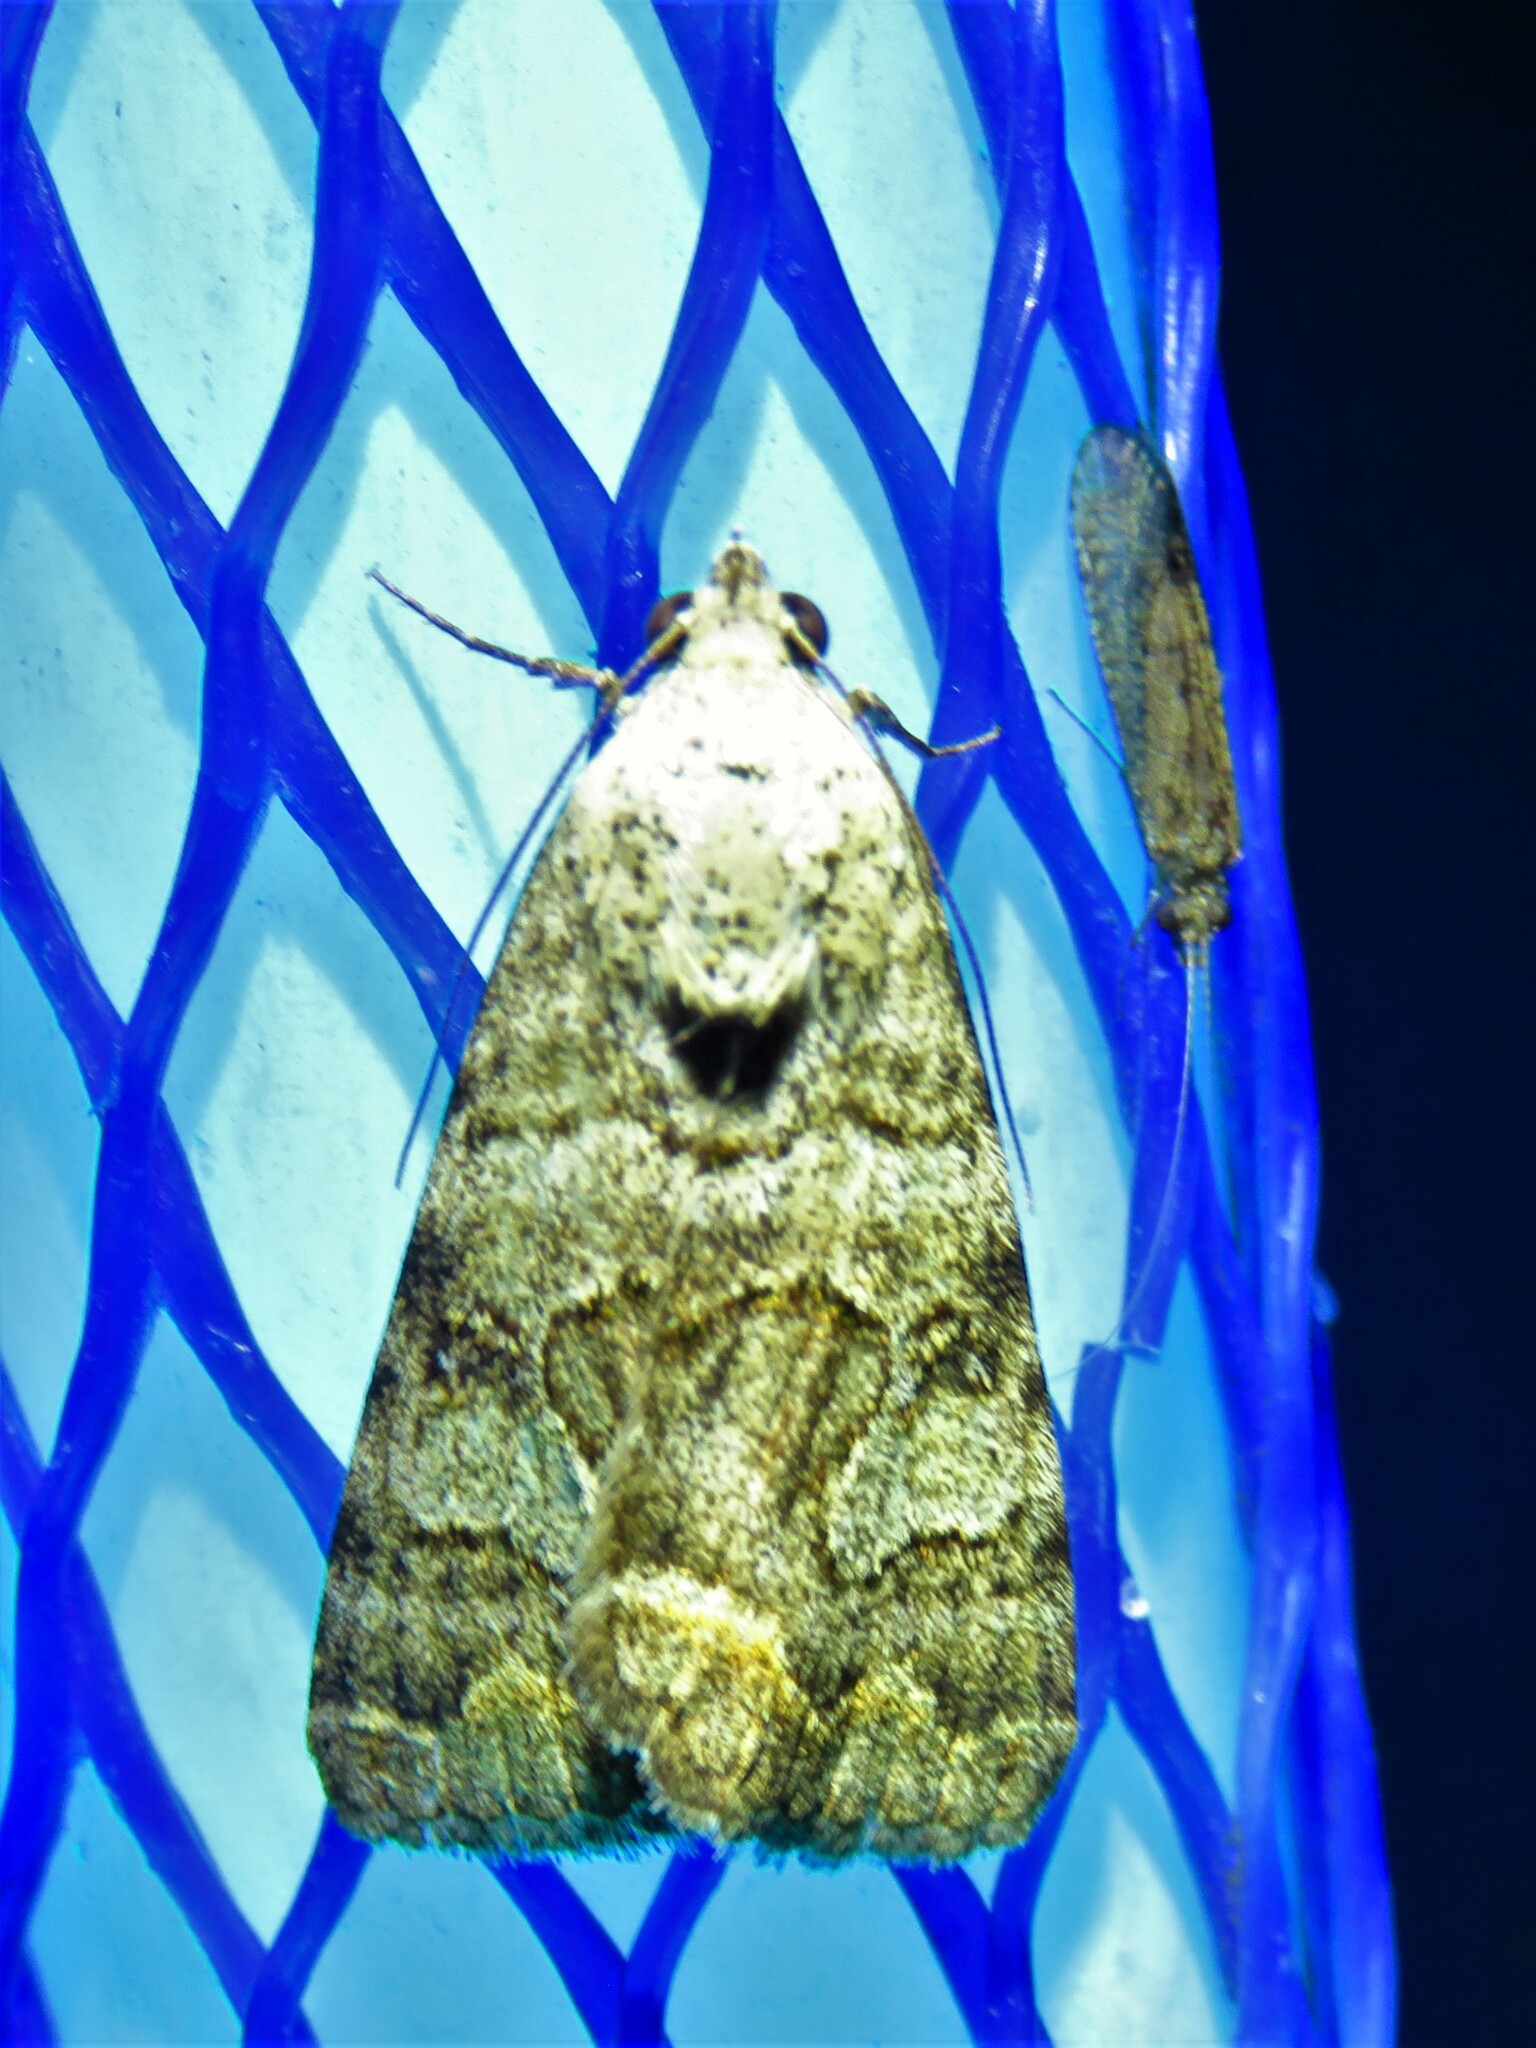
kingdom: Animalia
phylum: Arthropoda
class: Insecta
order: Lepidoptera
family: Erebidae
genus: Bulia
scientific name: Bulia deducta
